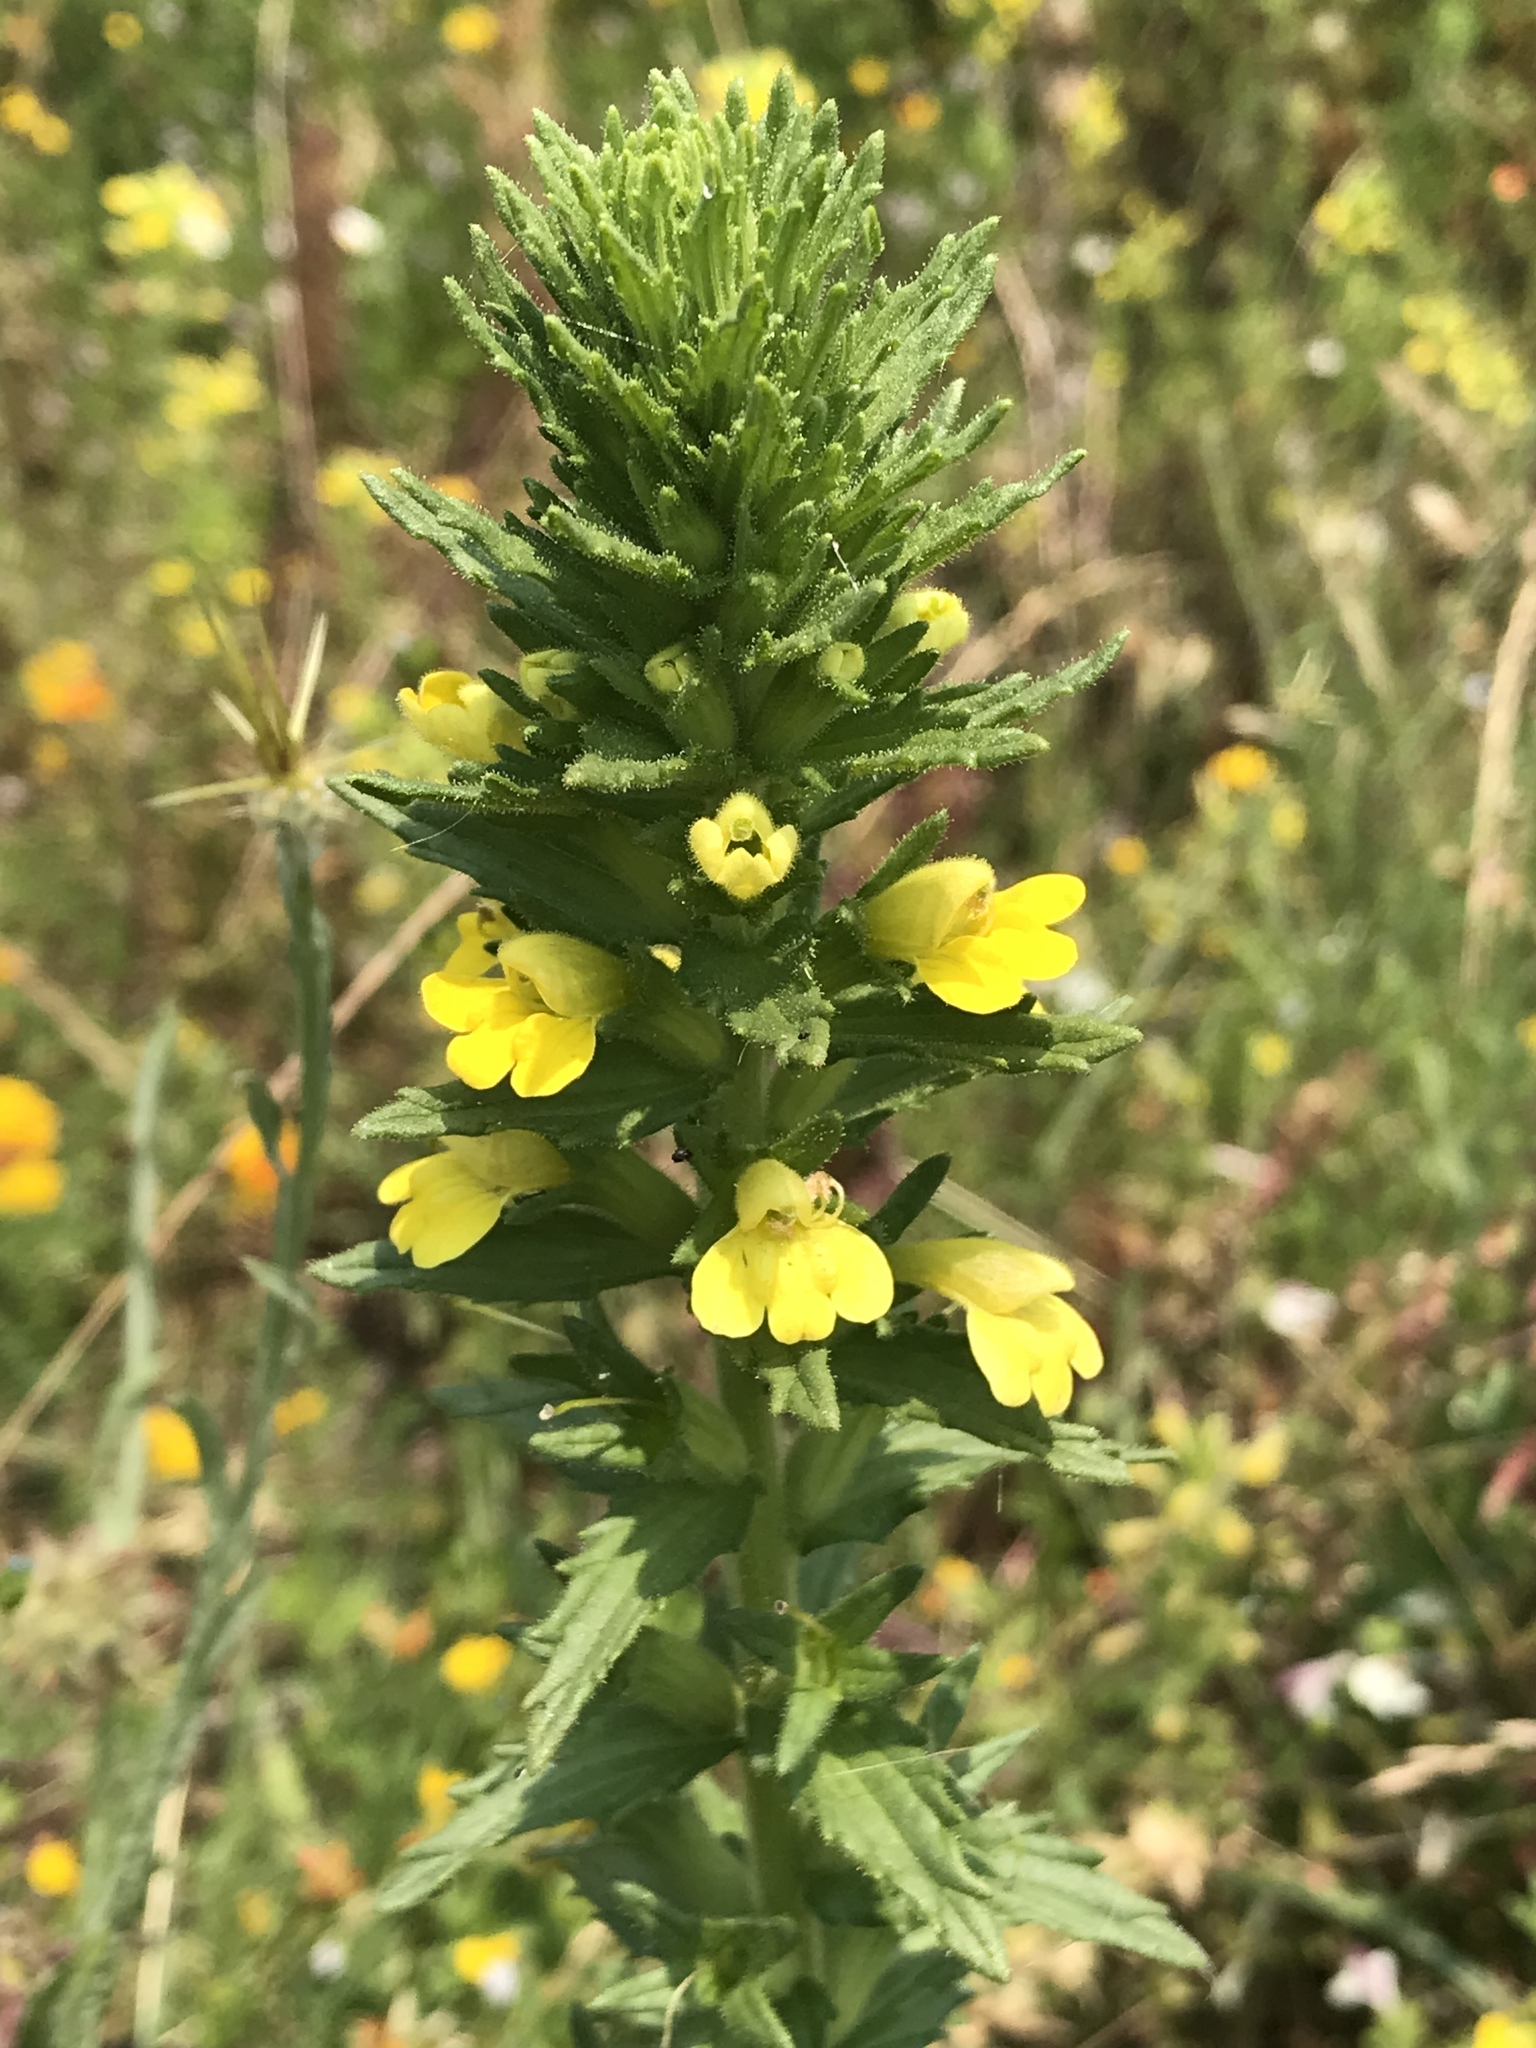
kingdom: Plantae
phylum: Tracheophyta
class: Magnoliopsida
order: Lamiales
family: Orobanchaceae
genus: Bellardia
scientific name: Bellardia viscosa
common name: Sticky parentucellia
